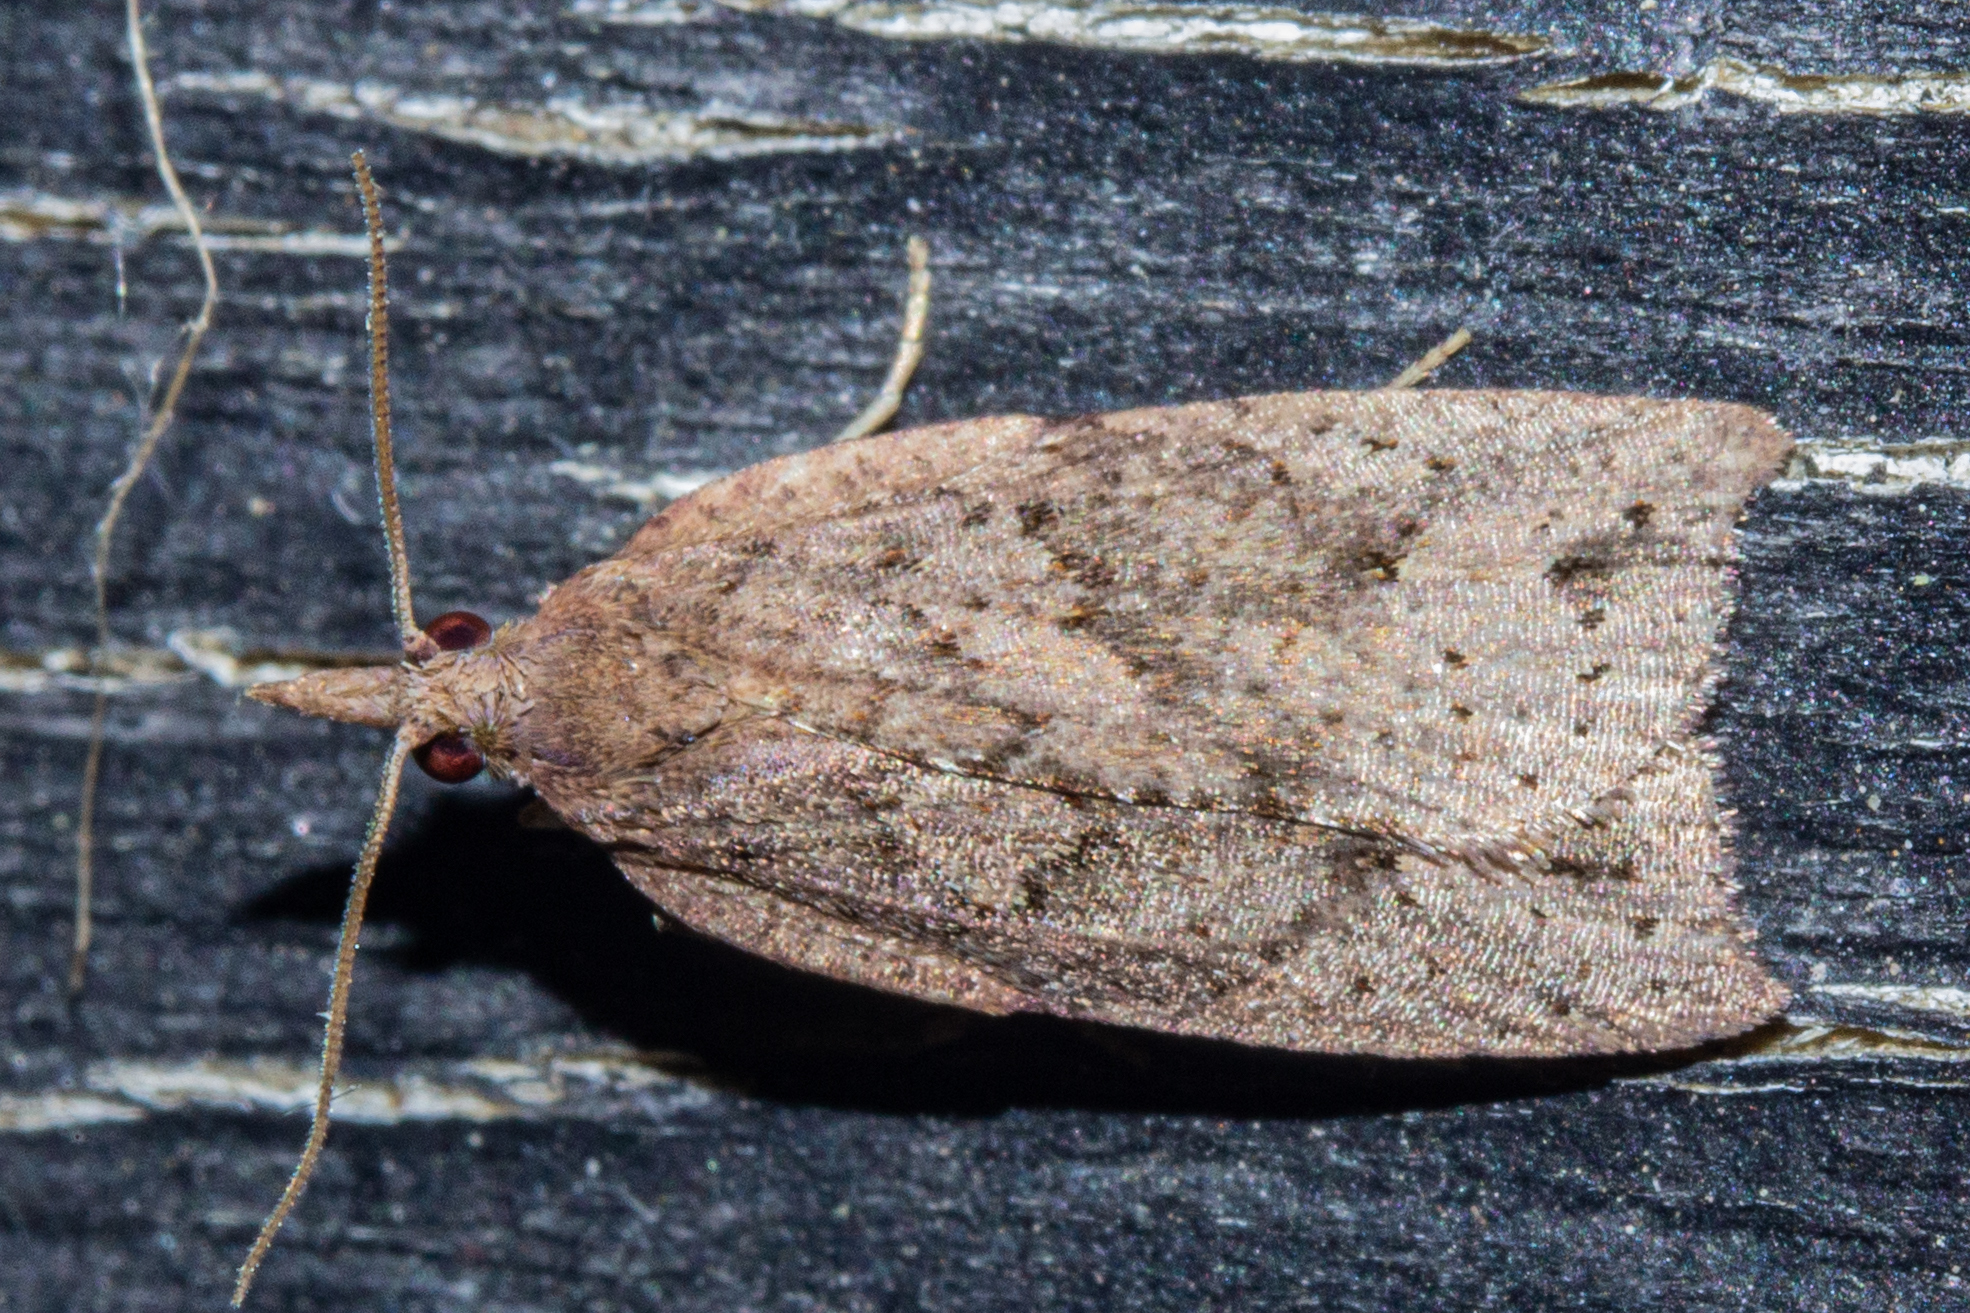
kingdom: Animalia
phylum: Arthropoda
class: Insecta
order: Lepidoptera
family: Tortricidae
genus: Planotortrix
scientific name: Planotortrix notophaea
